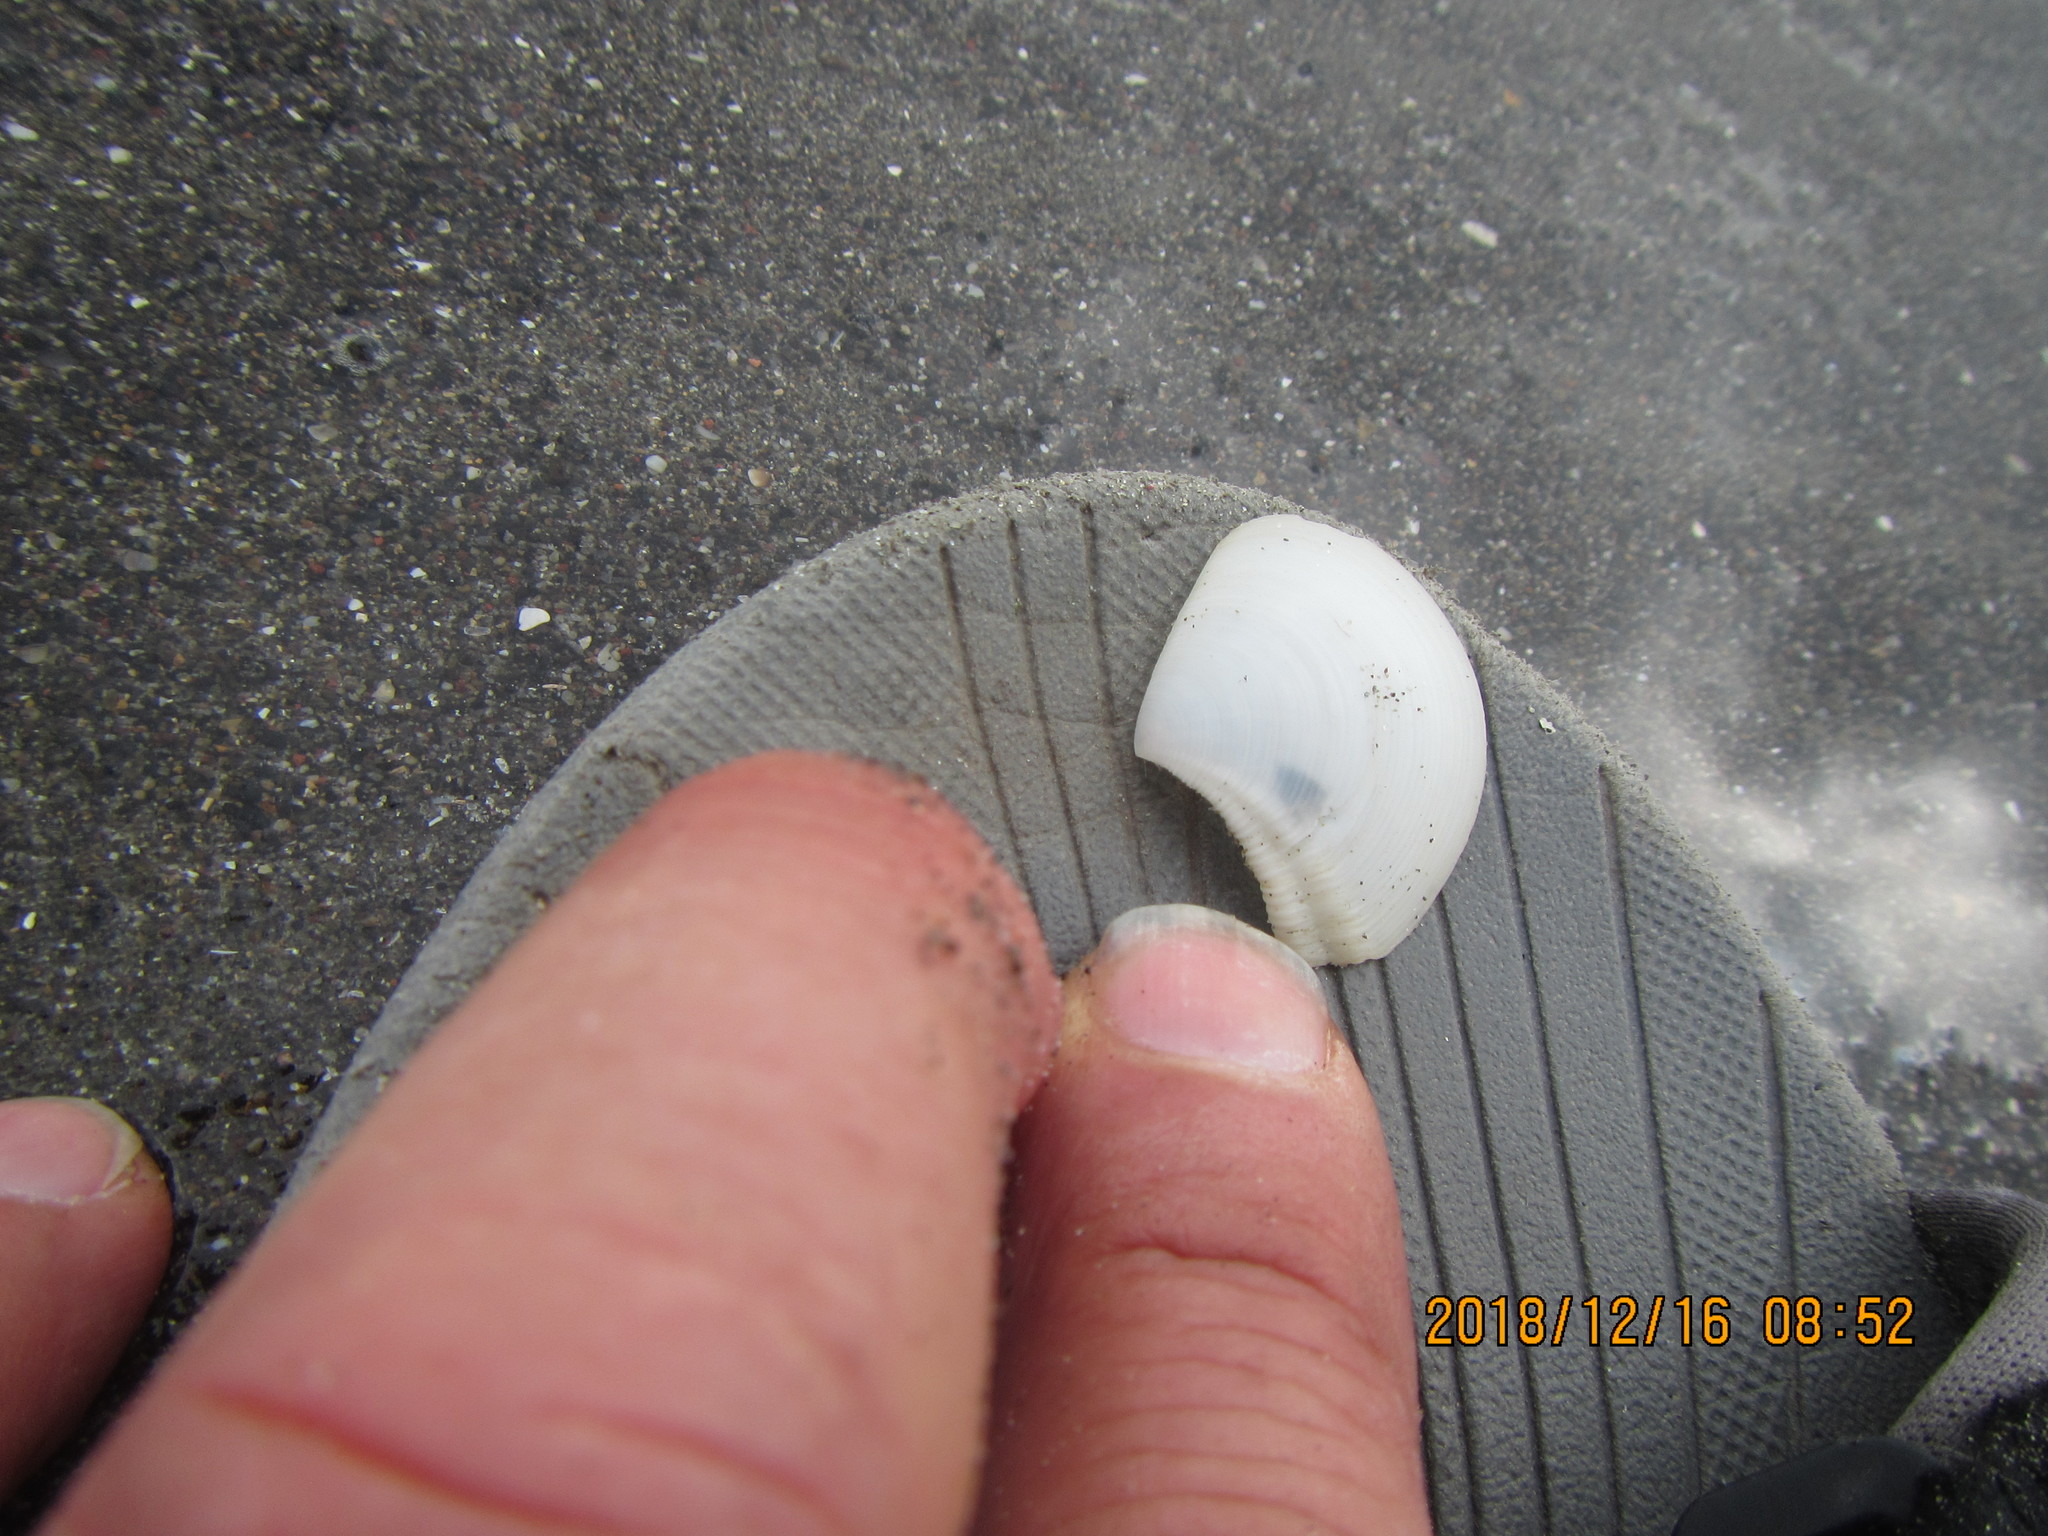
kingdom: Animalia
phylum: Mollusca
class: Bivalvia
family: Myochamidae
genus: Myadora
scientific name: Myadora striata
